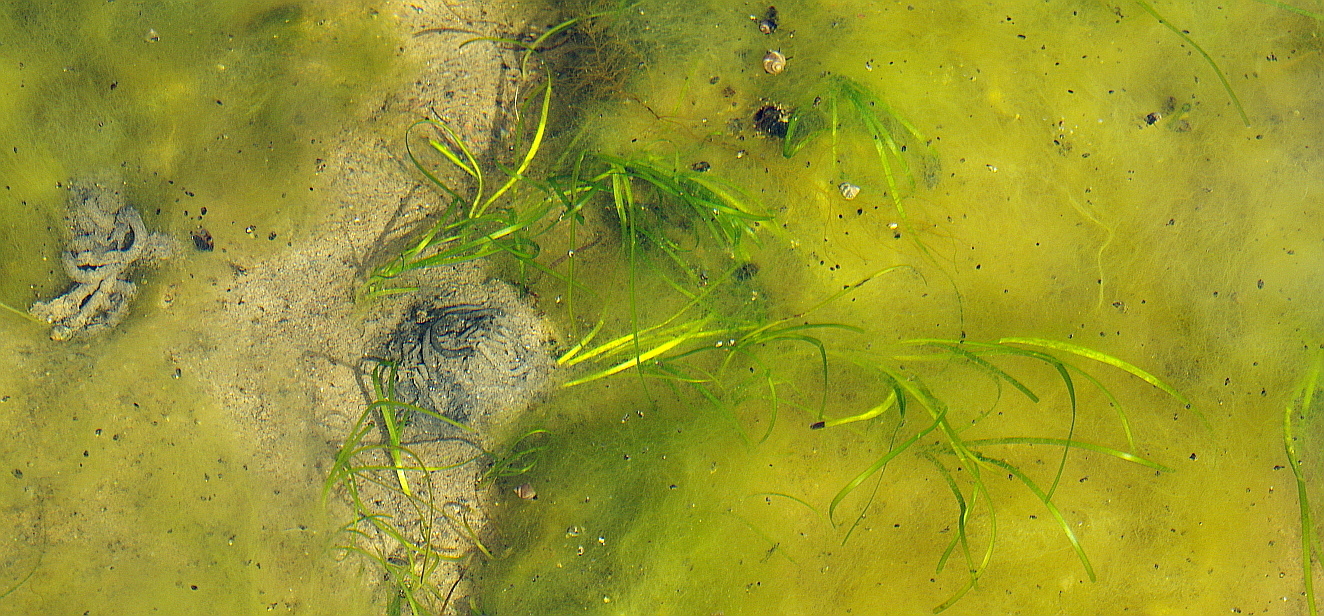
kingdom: Plantae
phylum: Tracheophyta
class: Liliopsida
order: Alismatales
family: Zosteraceae
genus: Zostera
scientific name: Zostera marina
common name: Eelgrass
